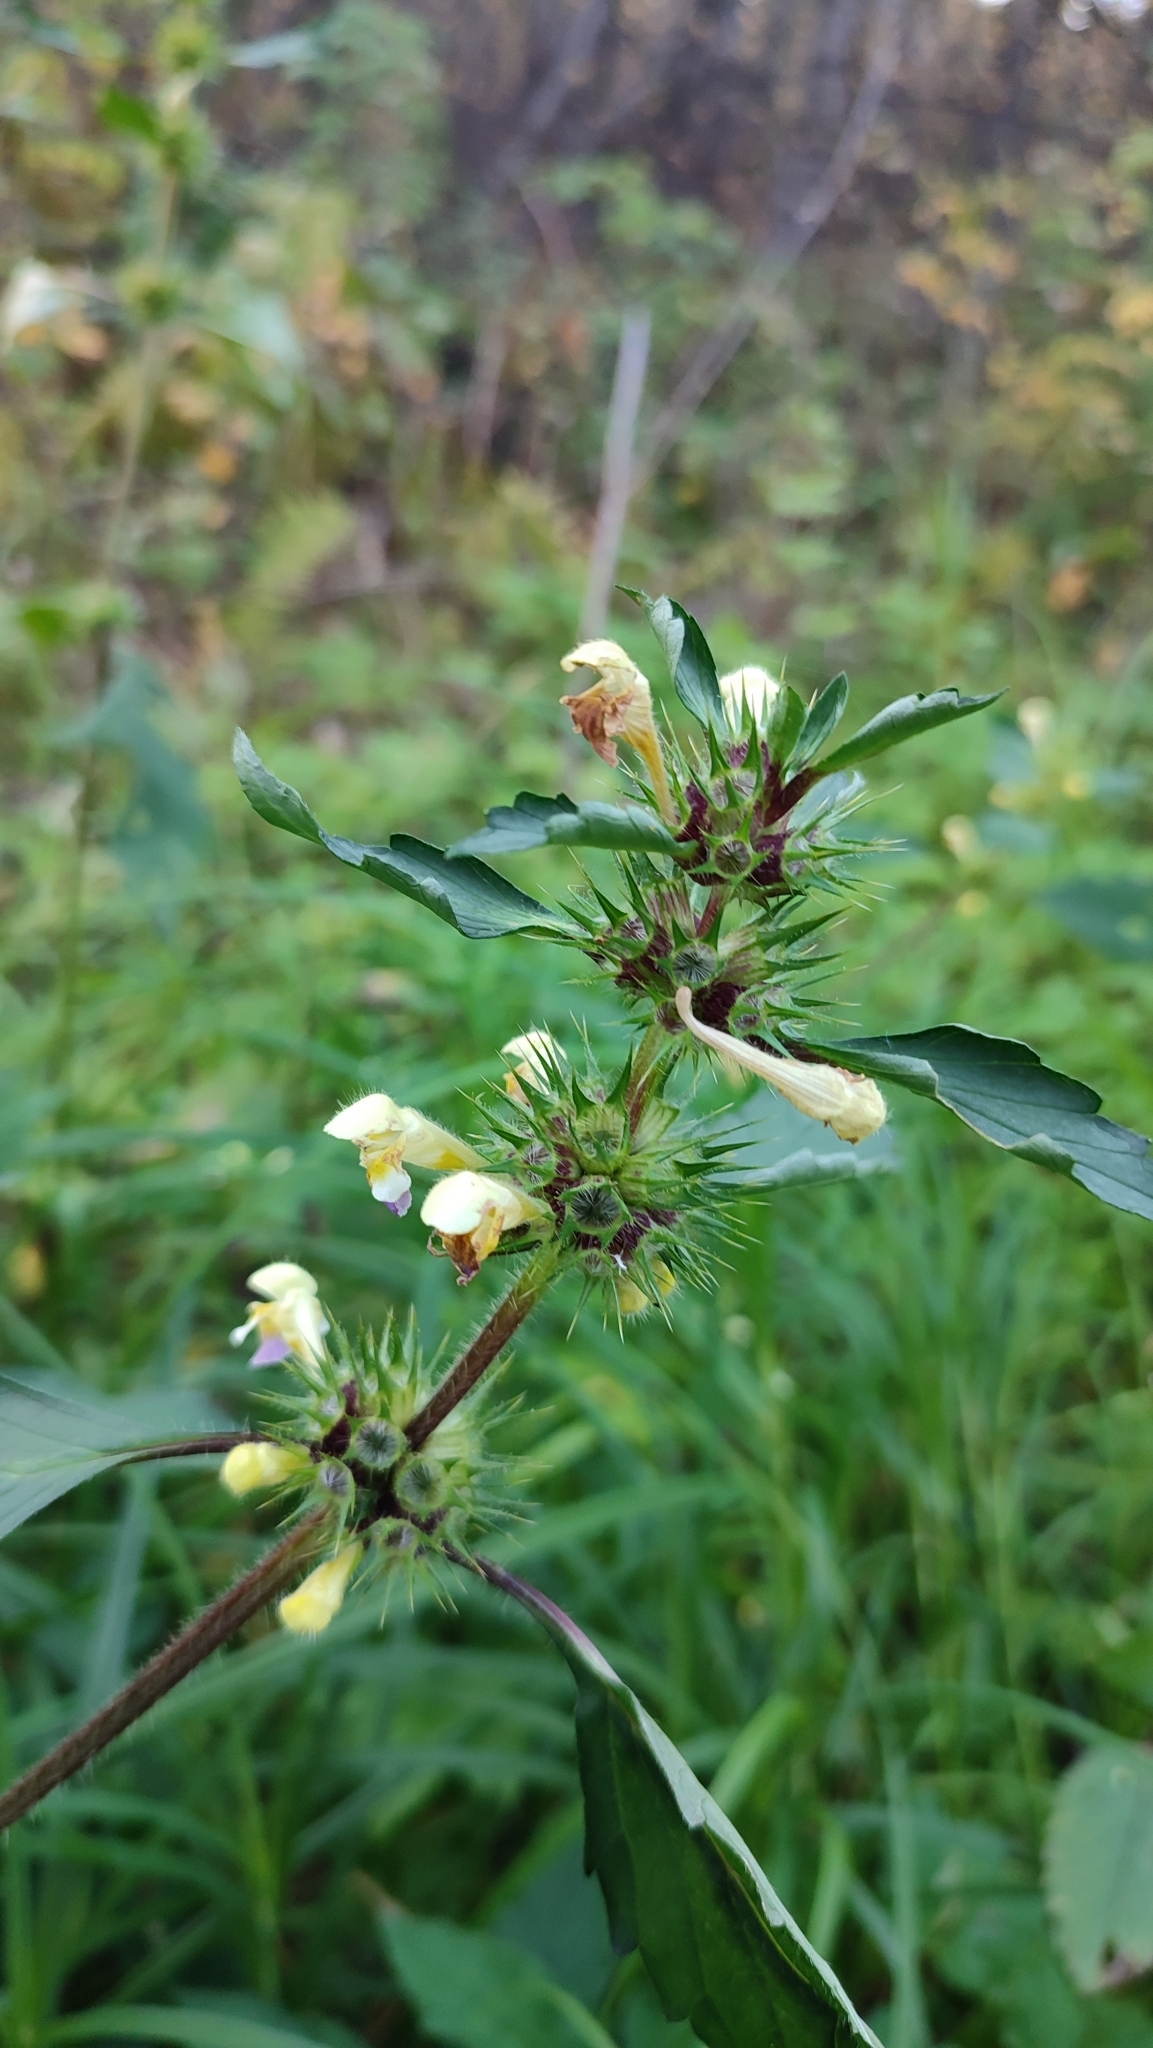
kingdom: Plantae
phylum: Tracheophyta
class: Magnoliopsida
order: Lamiales
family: Lamiaceae
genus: Galeopsis
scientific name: Galeopsis speciosa
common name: Large-flowered hemp-nettle
